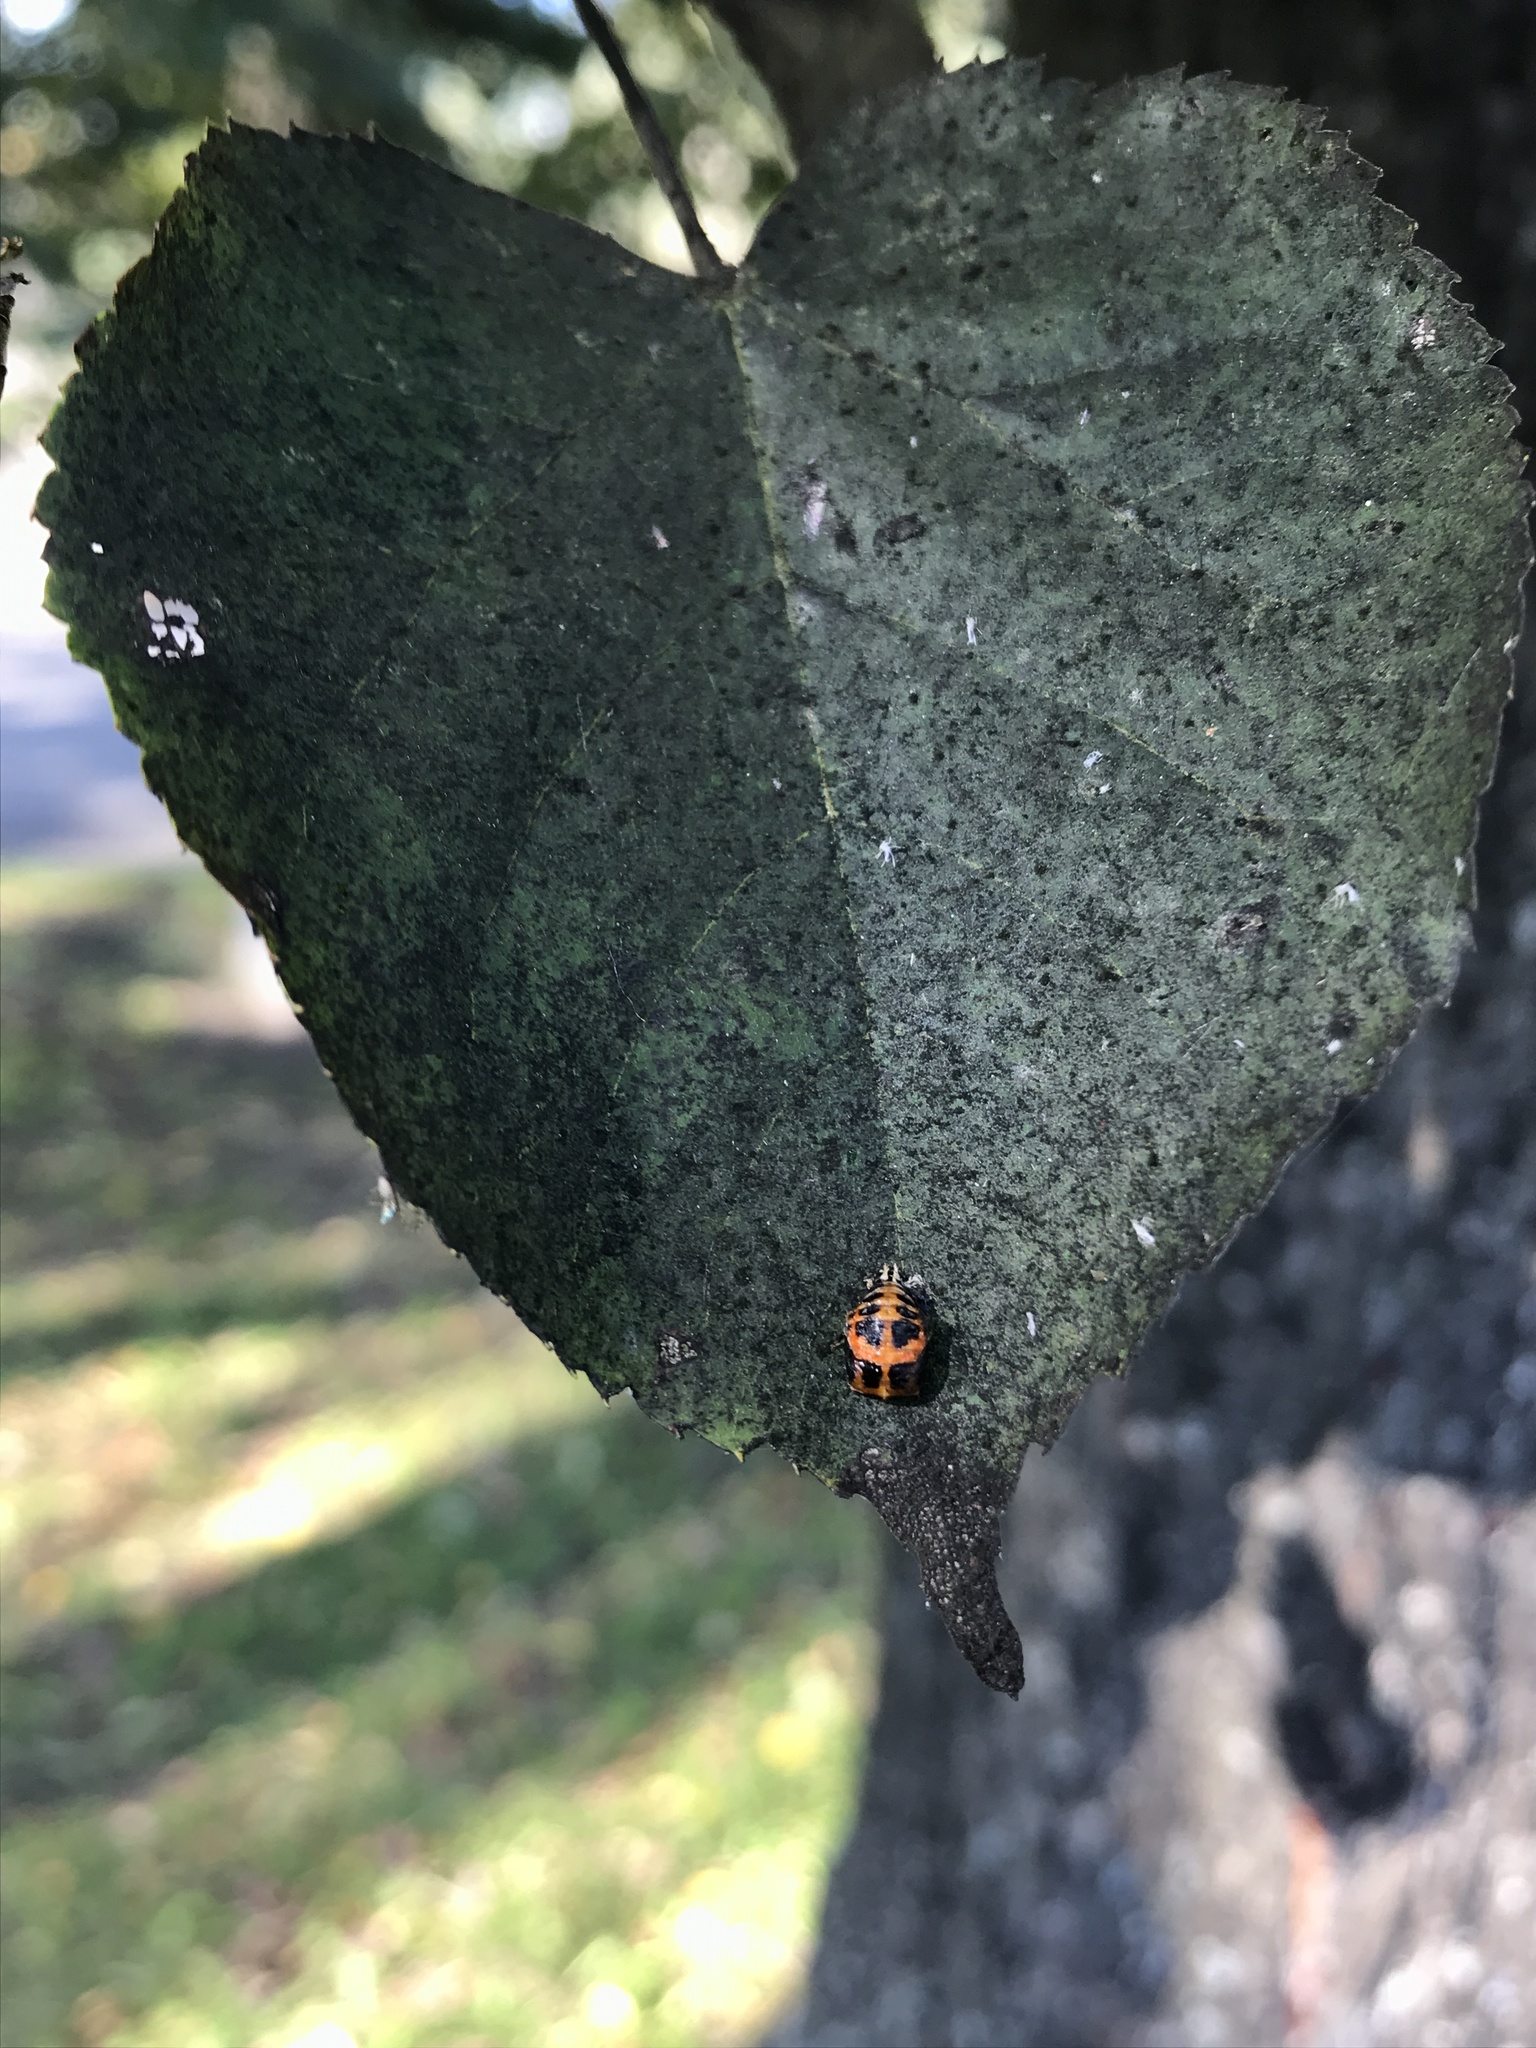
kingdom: Animalia
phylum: Arthropoda
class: Insecta
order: Coleoptera
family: Coccinellidae
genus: Harmonia
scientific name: Harmonia axyridis
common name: Harlequin ladybird
